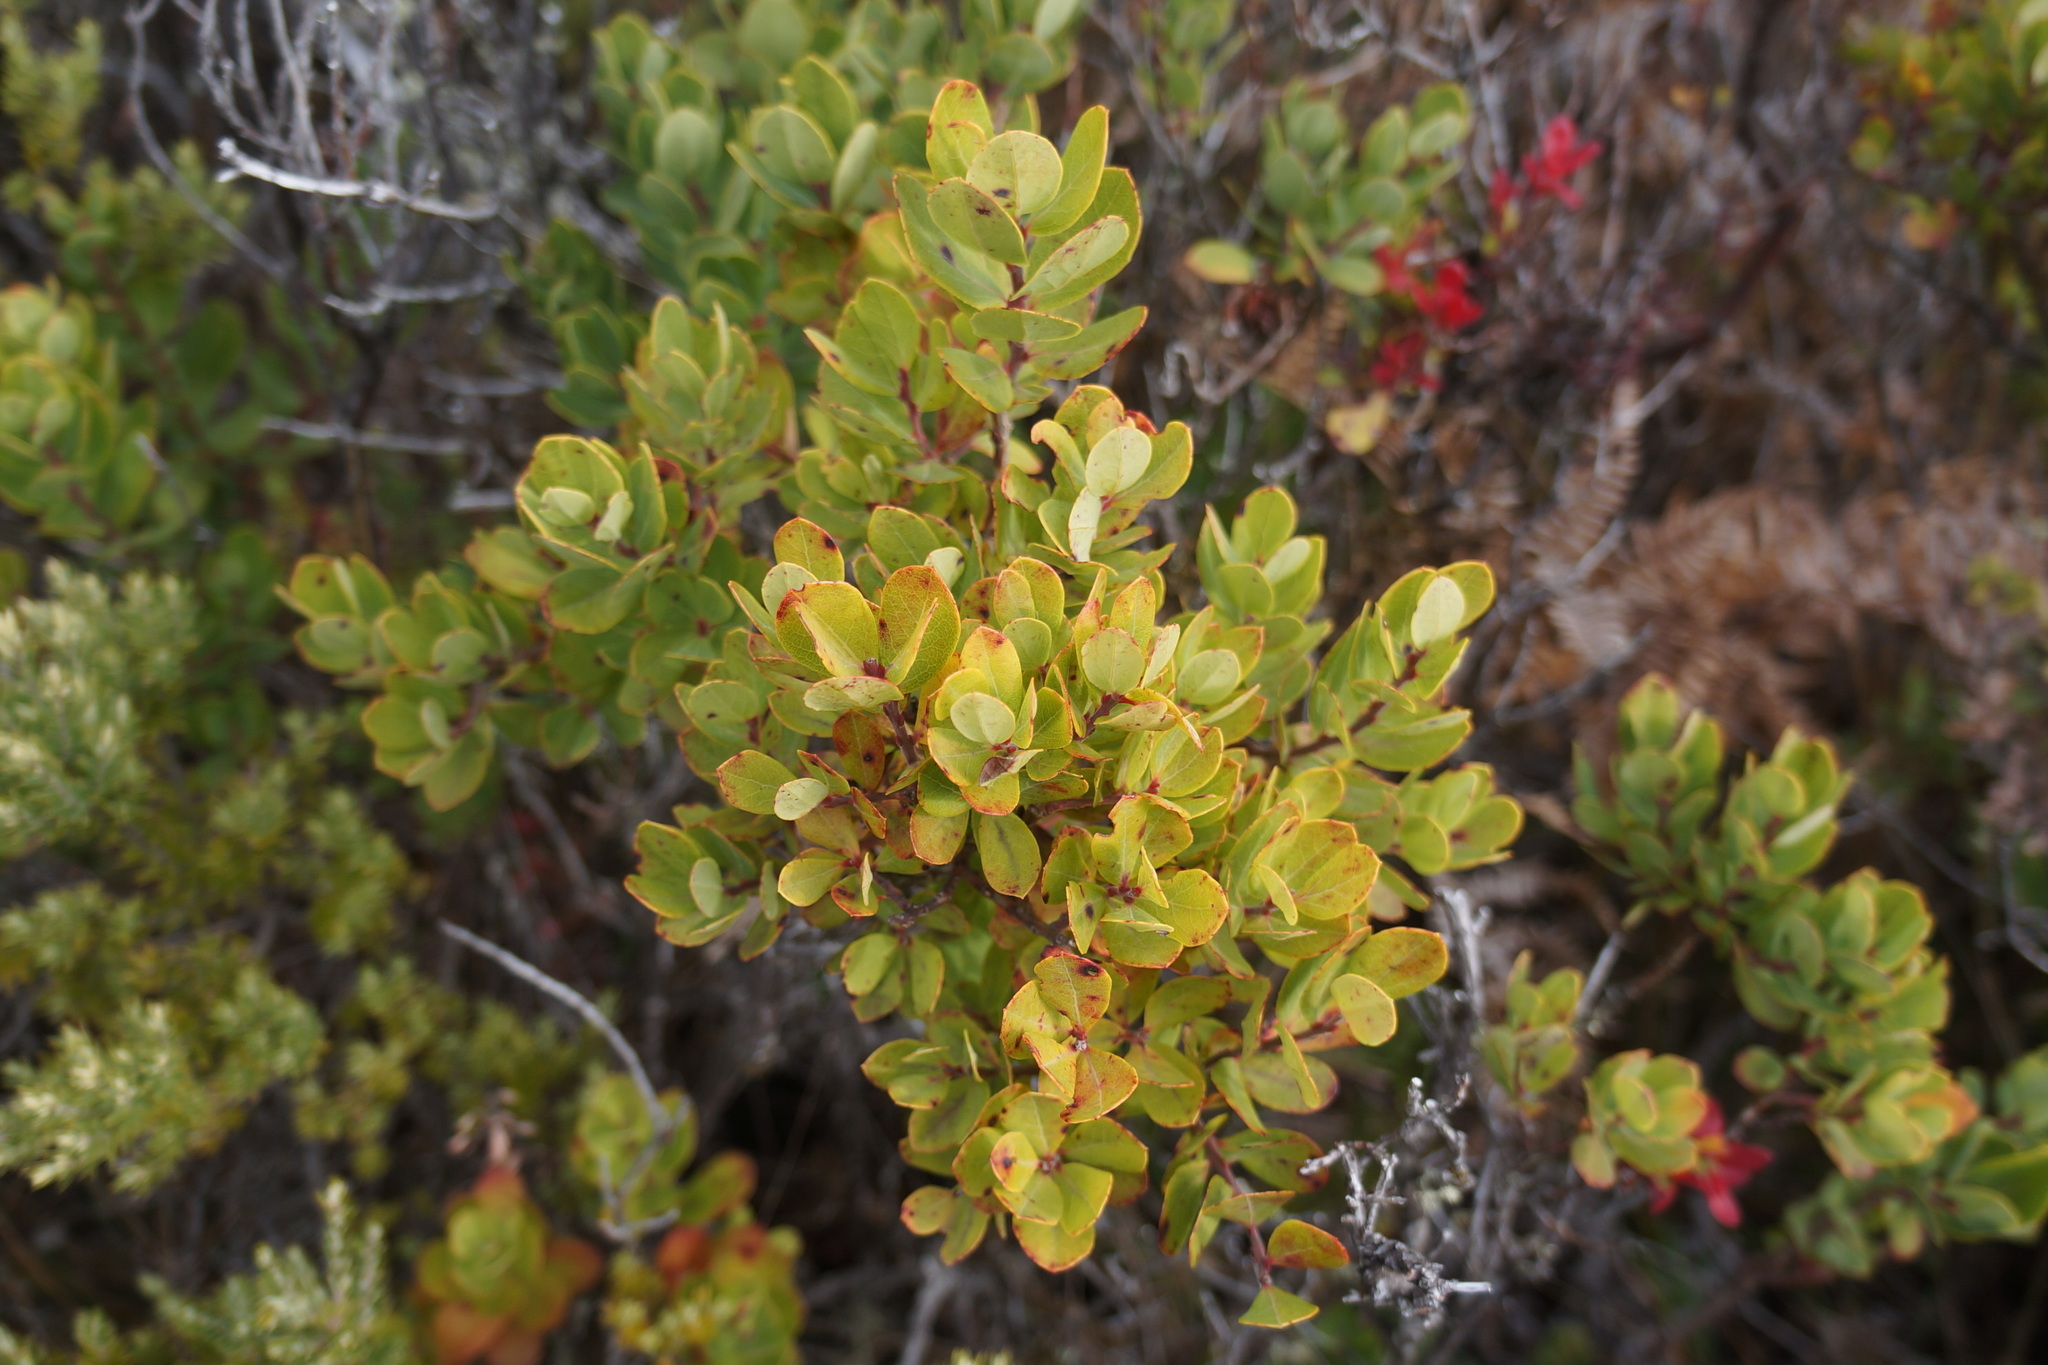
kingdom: Plantae
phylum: Tracheophyta
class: Magnoliopsida
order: Ericales
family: Ericaceae
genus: Vaccinium
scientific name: Vaccinium reticulatum
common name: Ohelo
